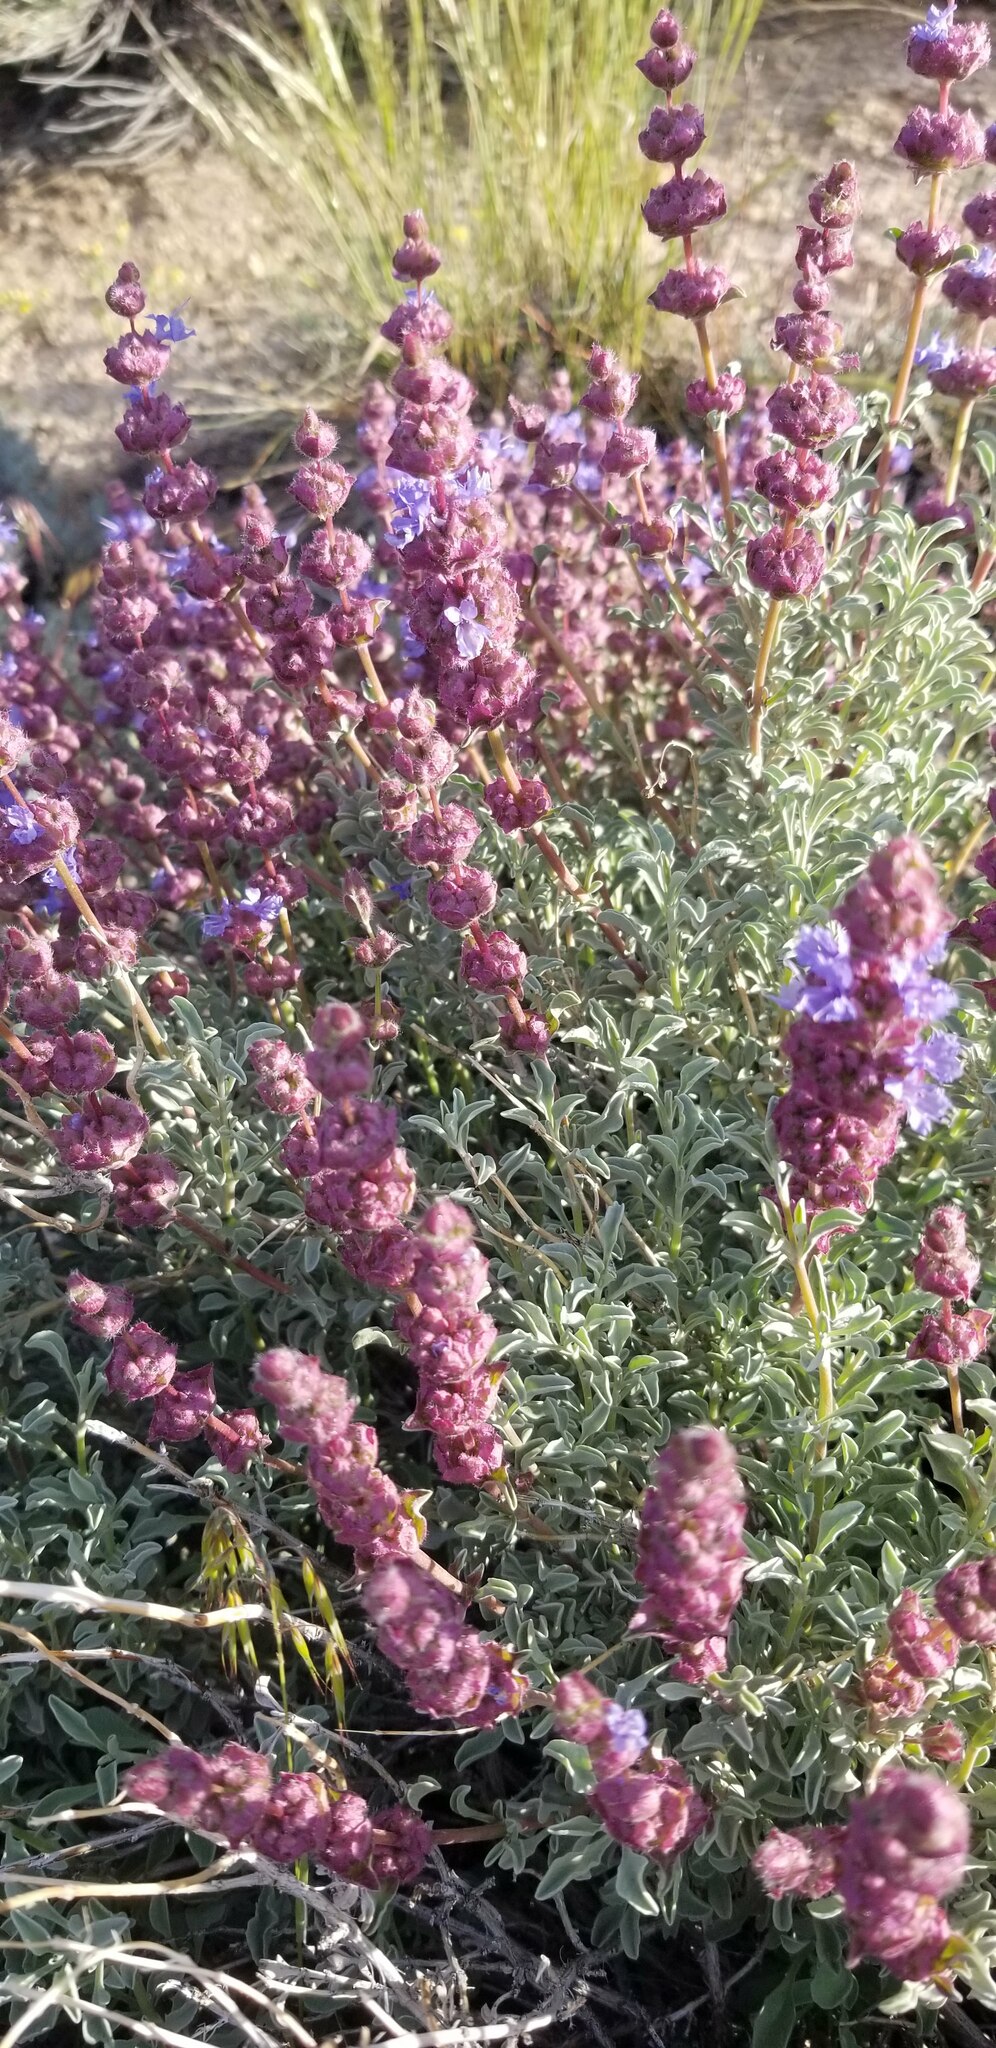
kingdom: Plantae
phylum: Tracheophyta
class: Magnoliopsida
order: Lamiales
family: Lamiaceae
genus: Salvia
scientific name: Salvia dorrii
